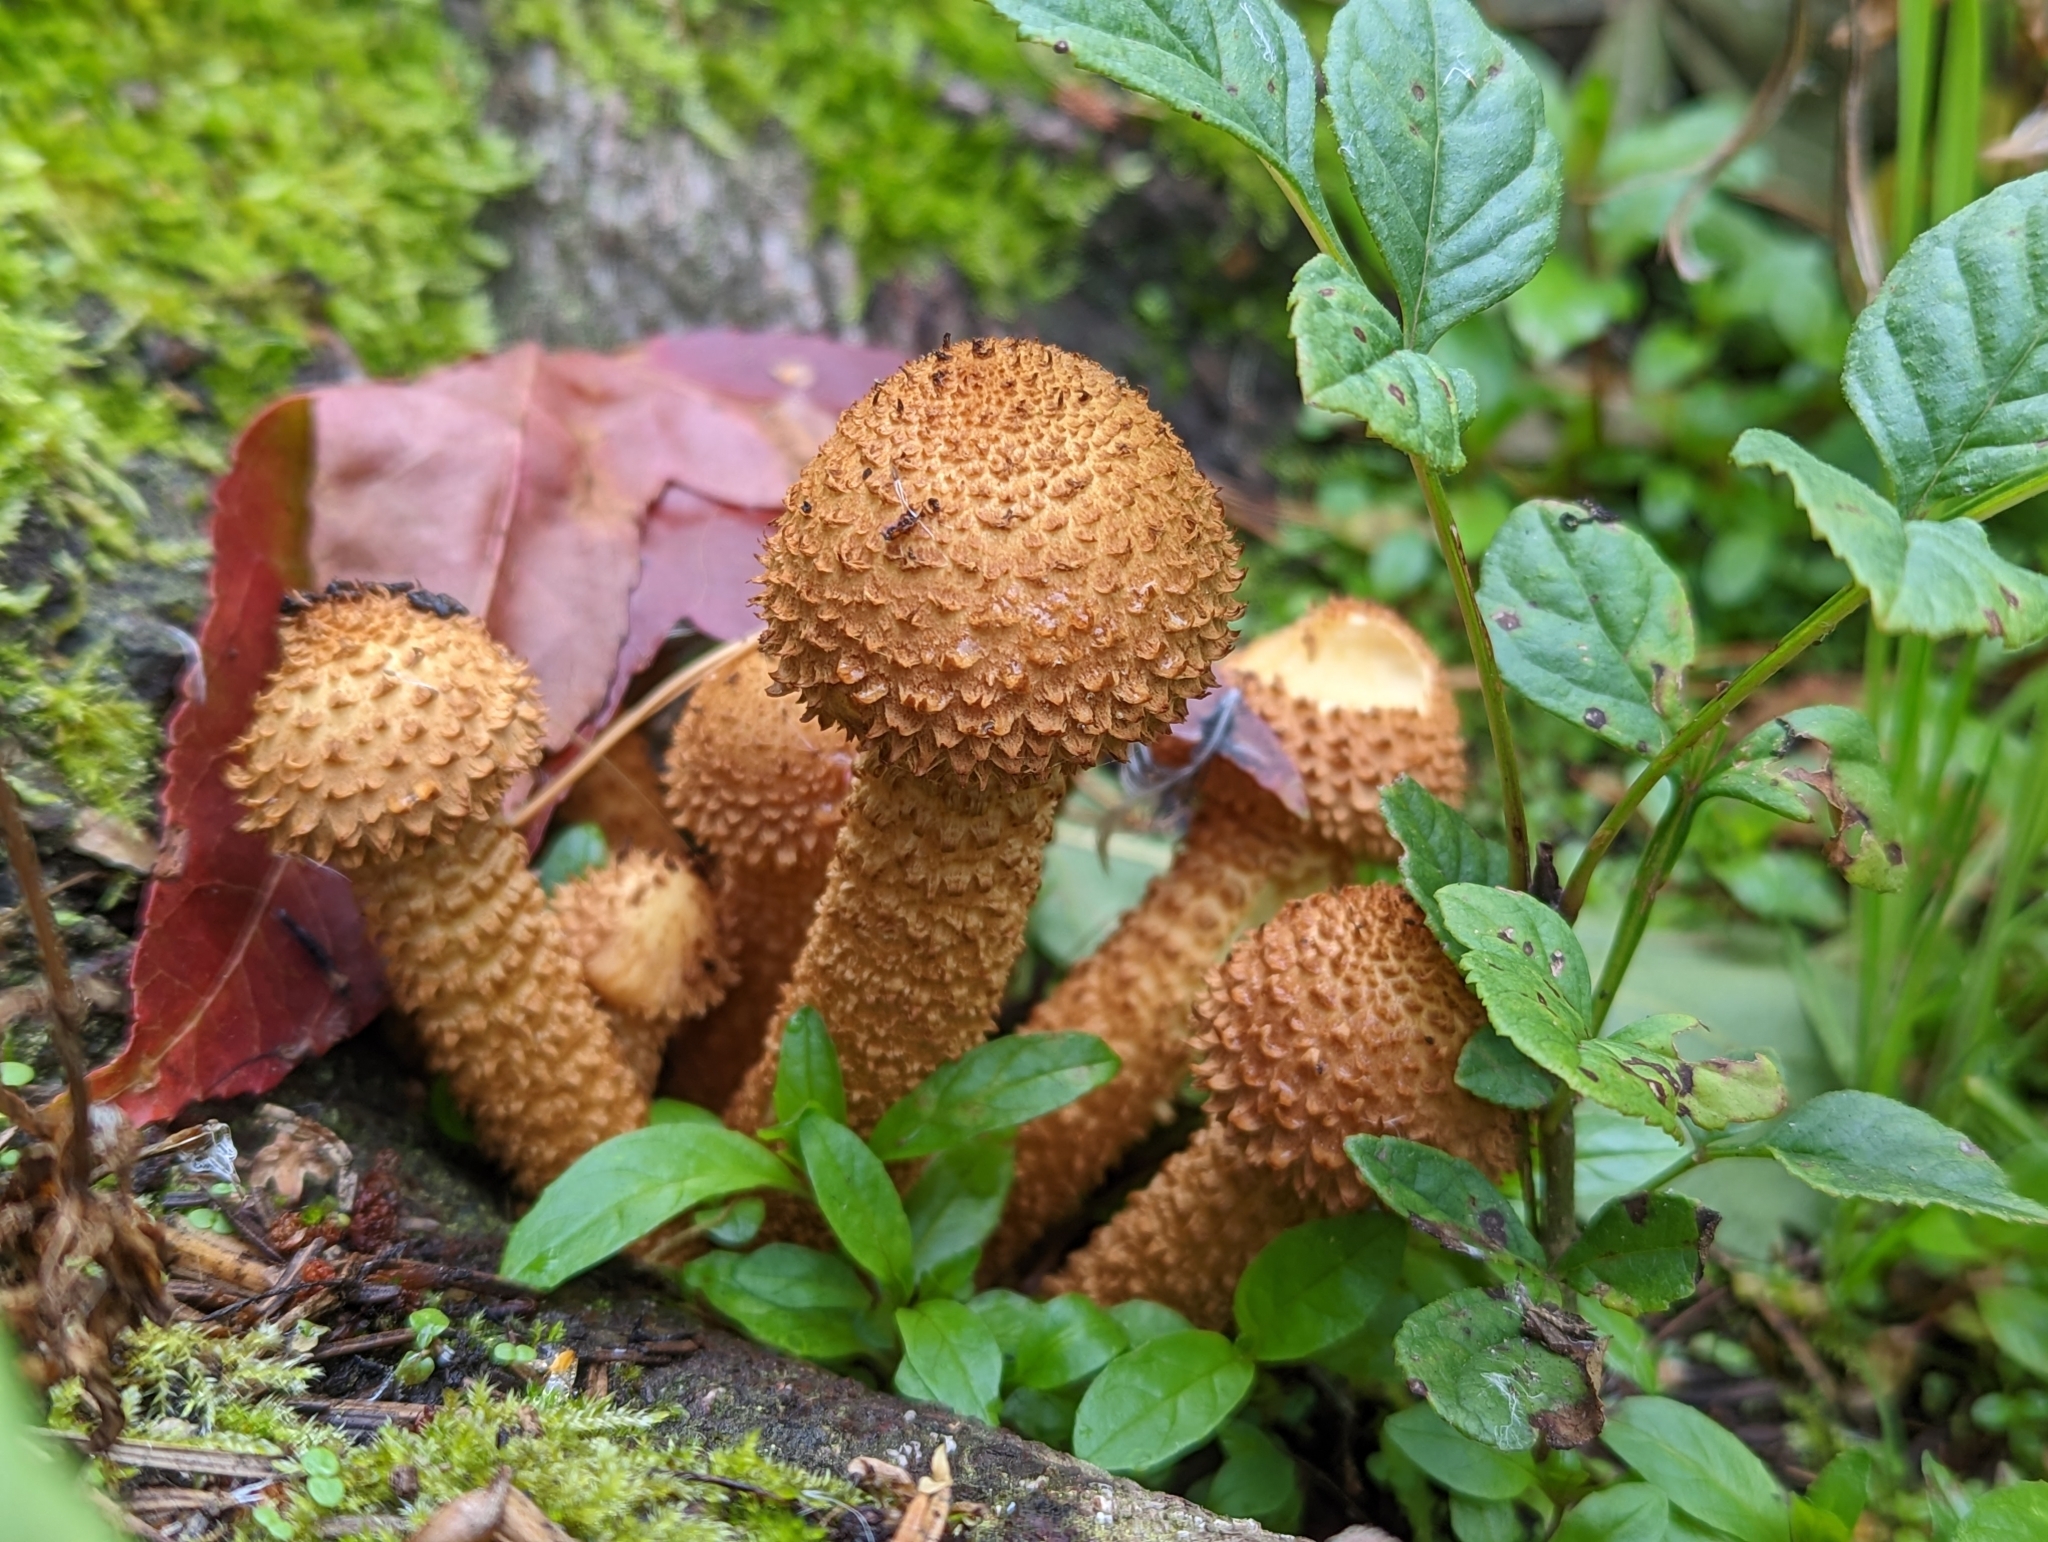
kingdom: Fungi
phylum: Basidiomycota
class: Agaricomycetes
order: Agaricales
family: Strophariaceae
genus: Pholiota
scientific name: Pholiota squarrosa
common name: Shaggy pholiota
